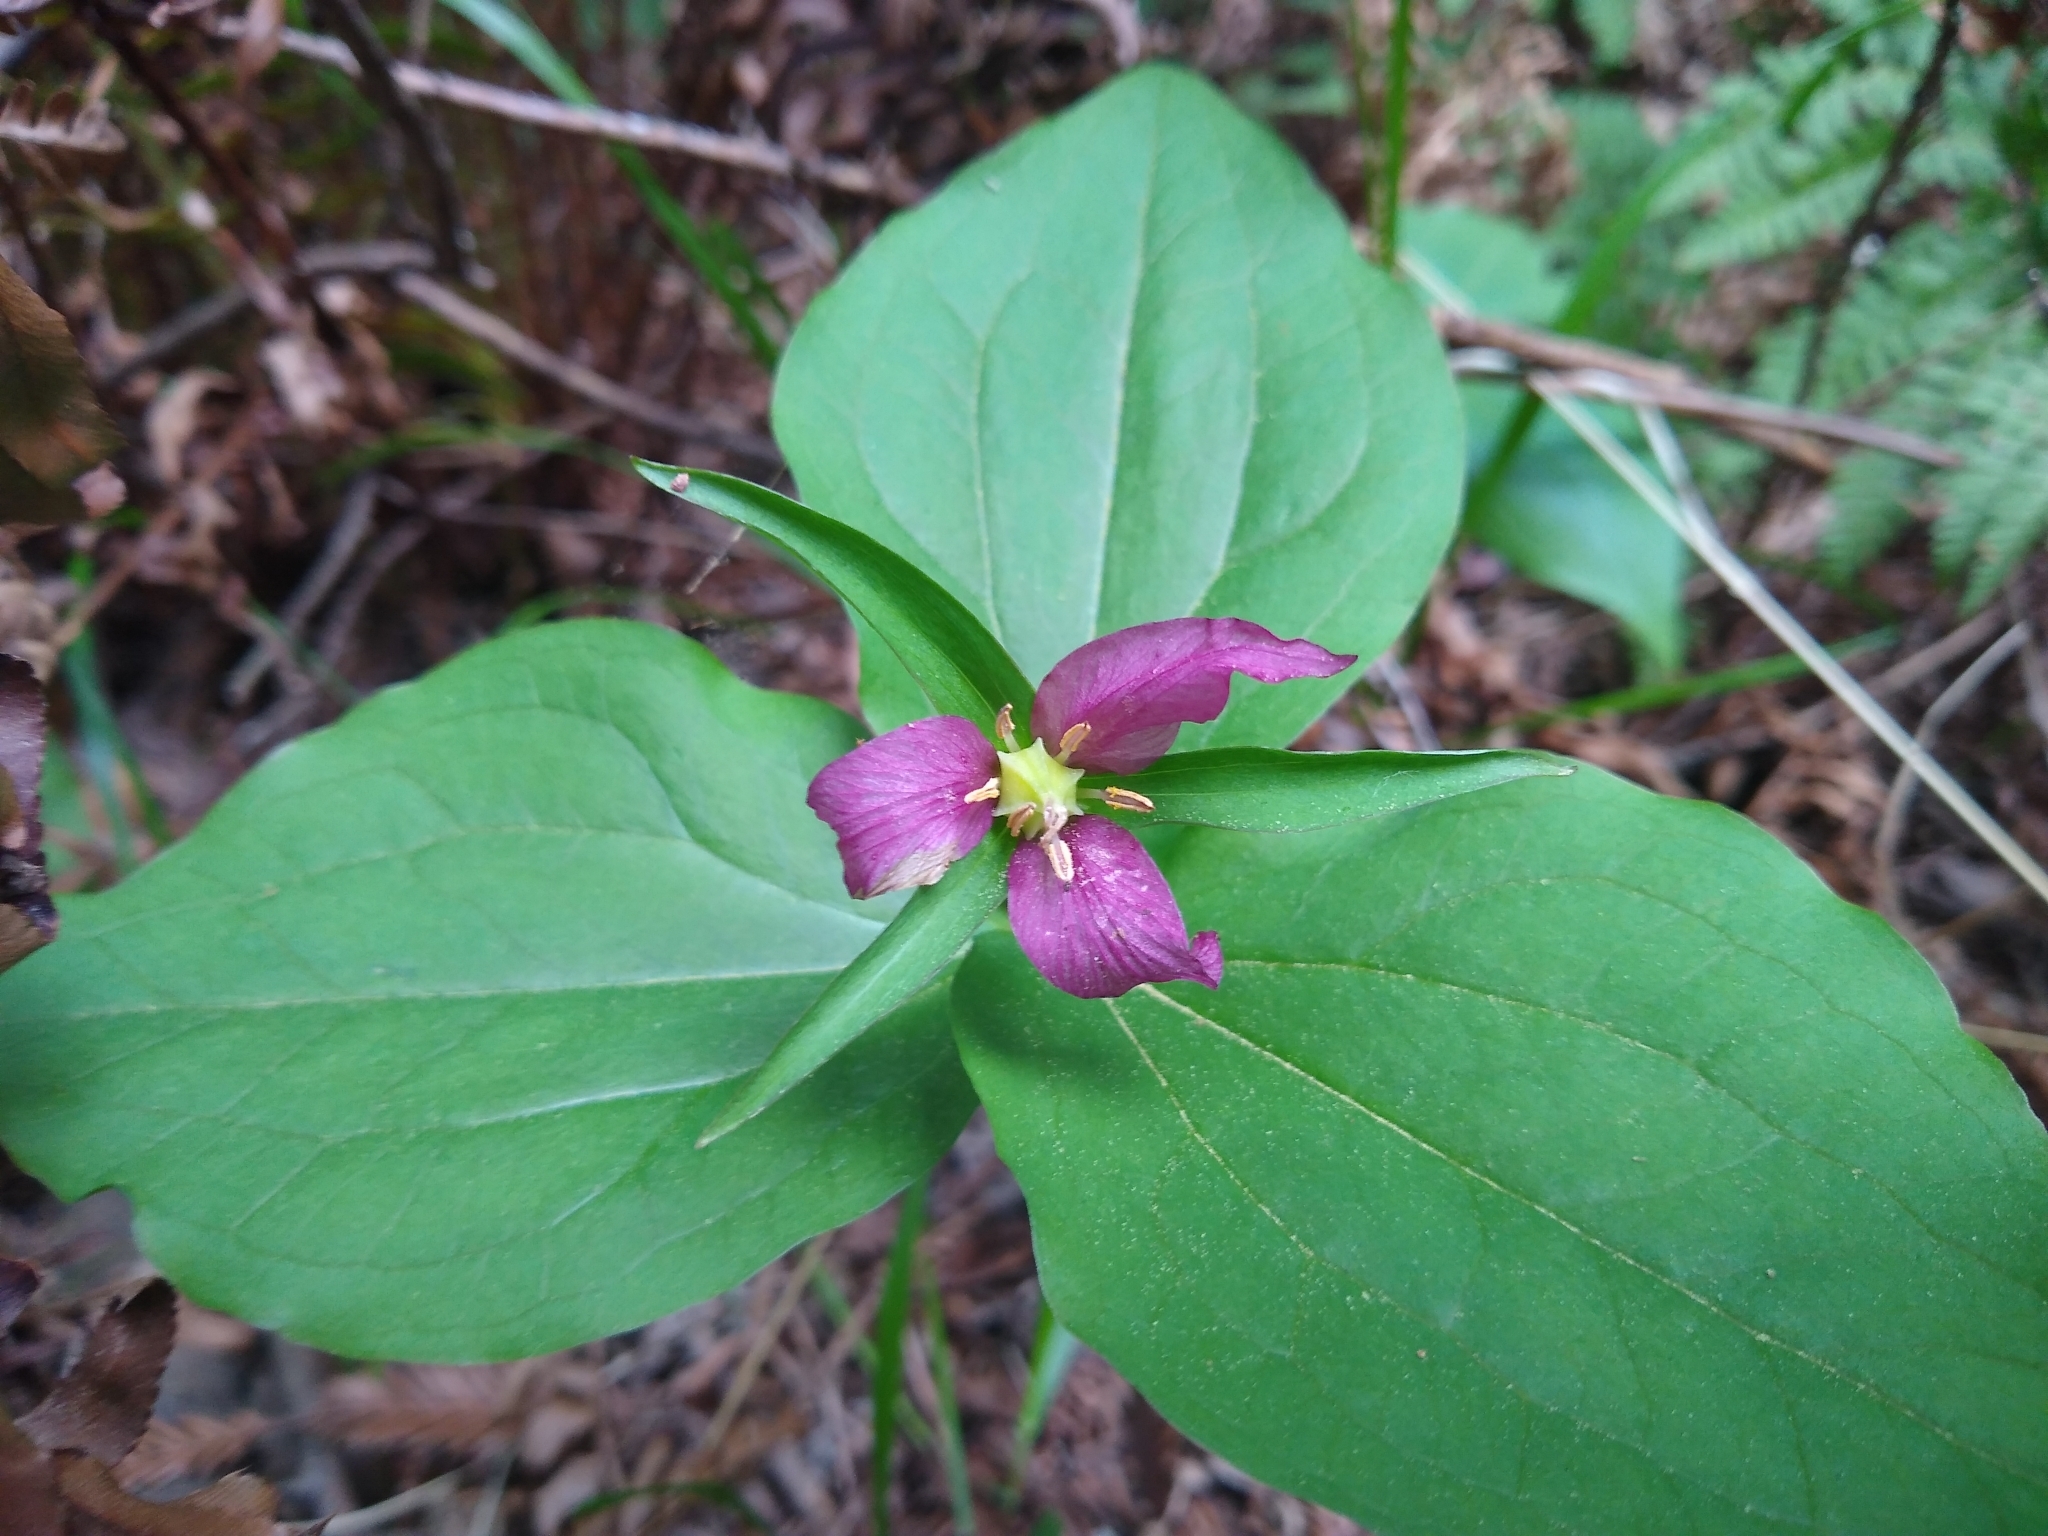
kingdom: Plantae
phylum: Tracheophyta
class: Liliopsida
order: Liliales
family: Melanthiaceae
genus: Trillium
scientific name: Trillium ovatum
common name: Pacific trillium
